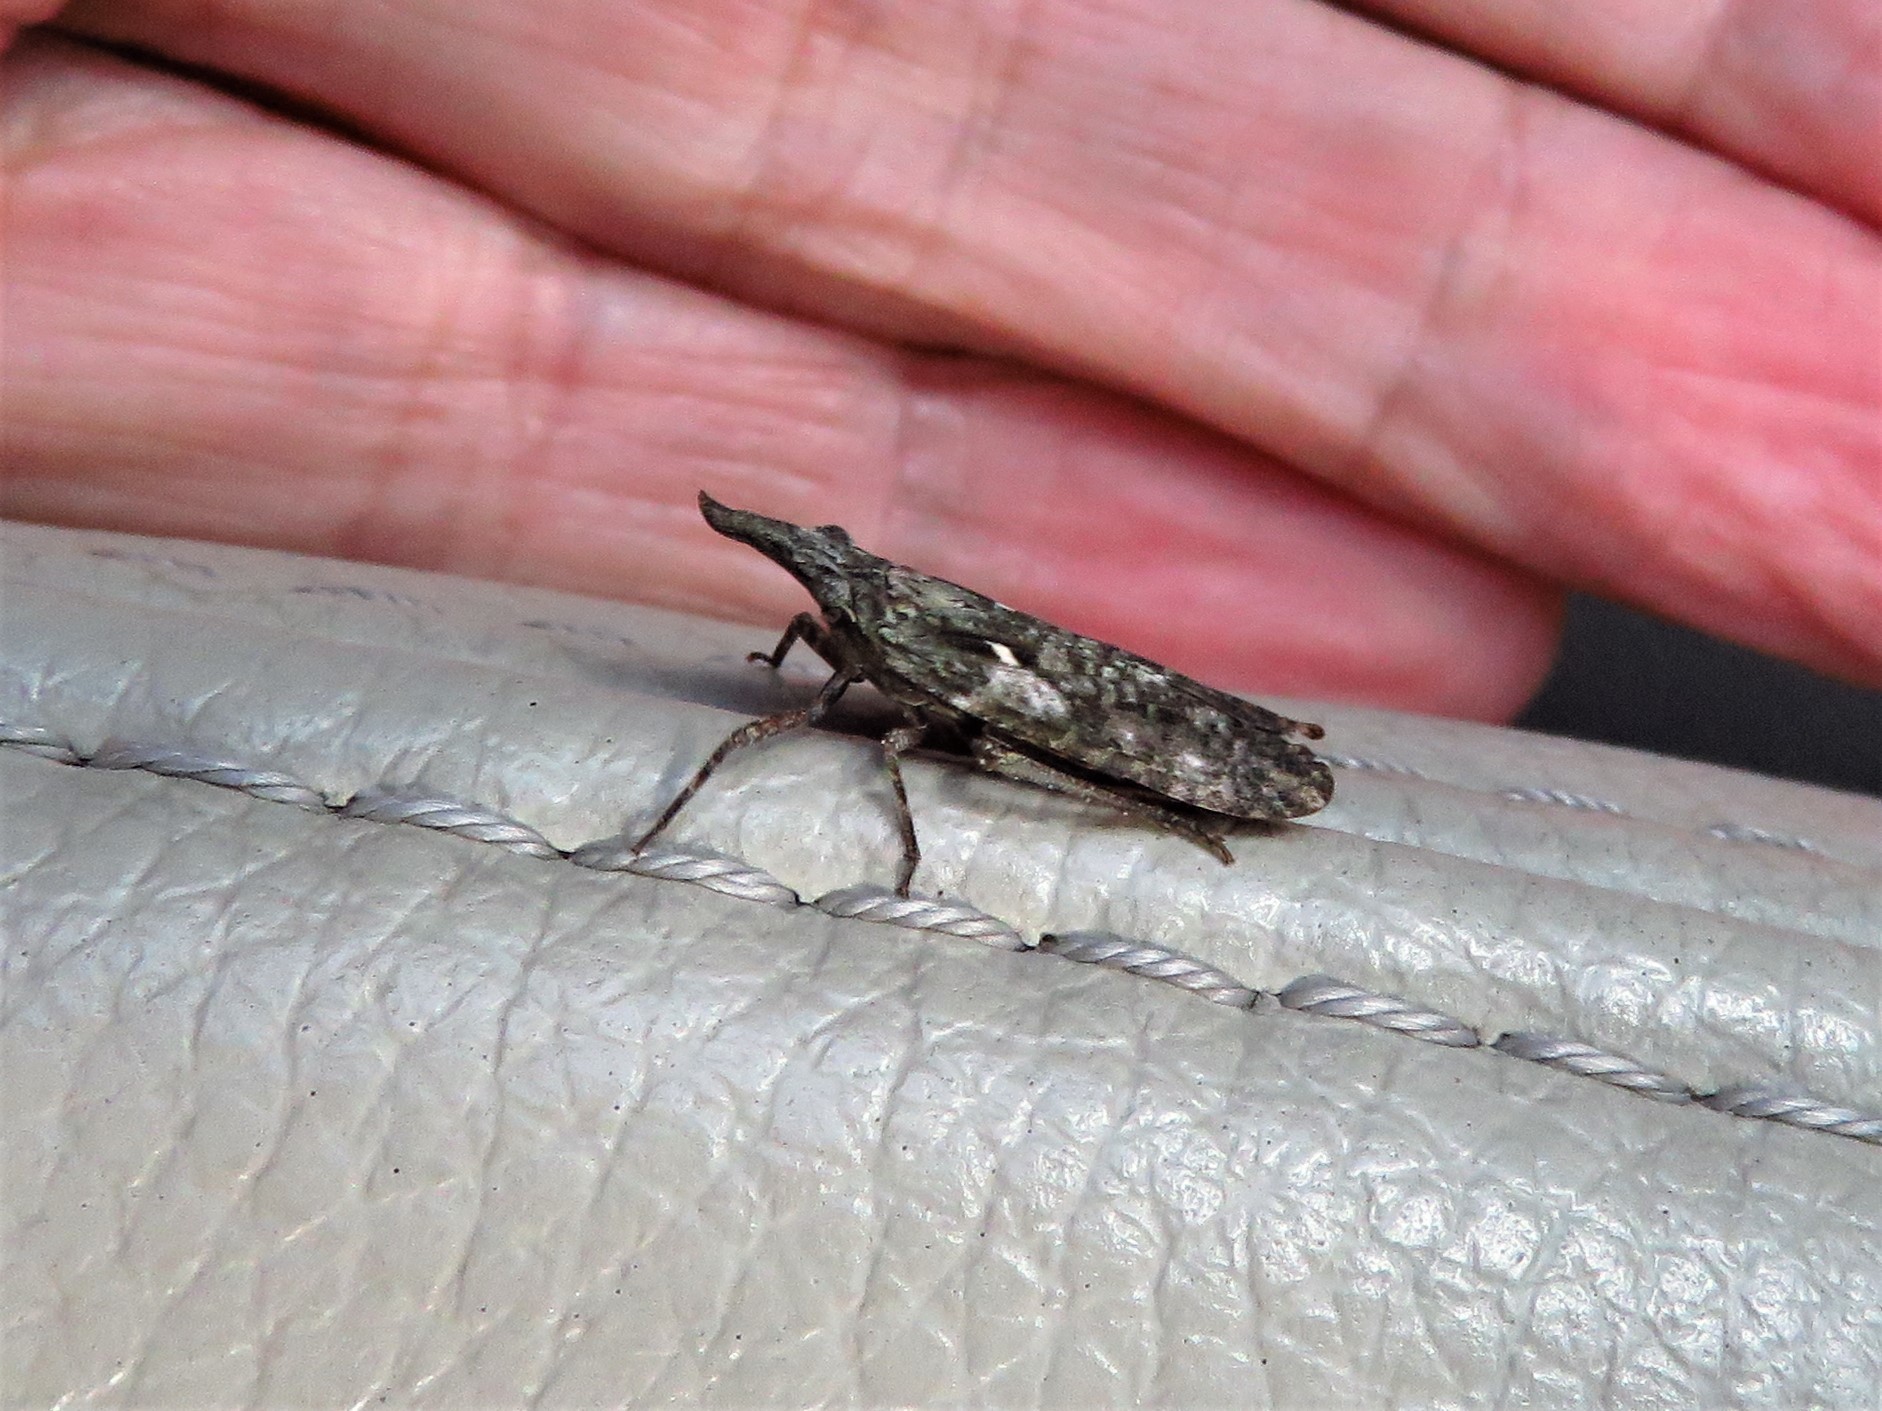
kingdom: Animalia
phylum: Arthropoda
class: Insecta
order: Hemiptera
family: Fulgoridae
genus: Amycle
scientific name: Amycle vernalis
